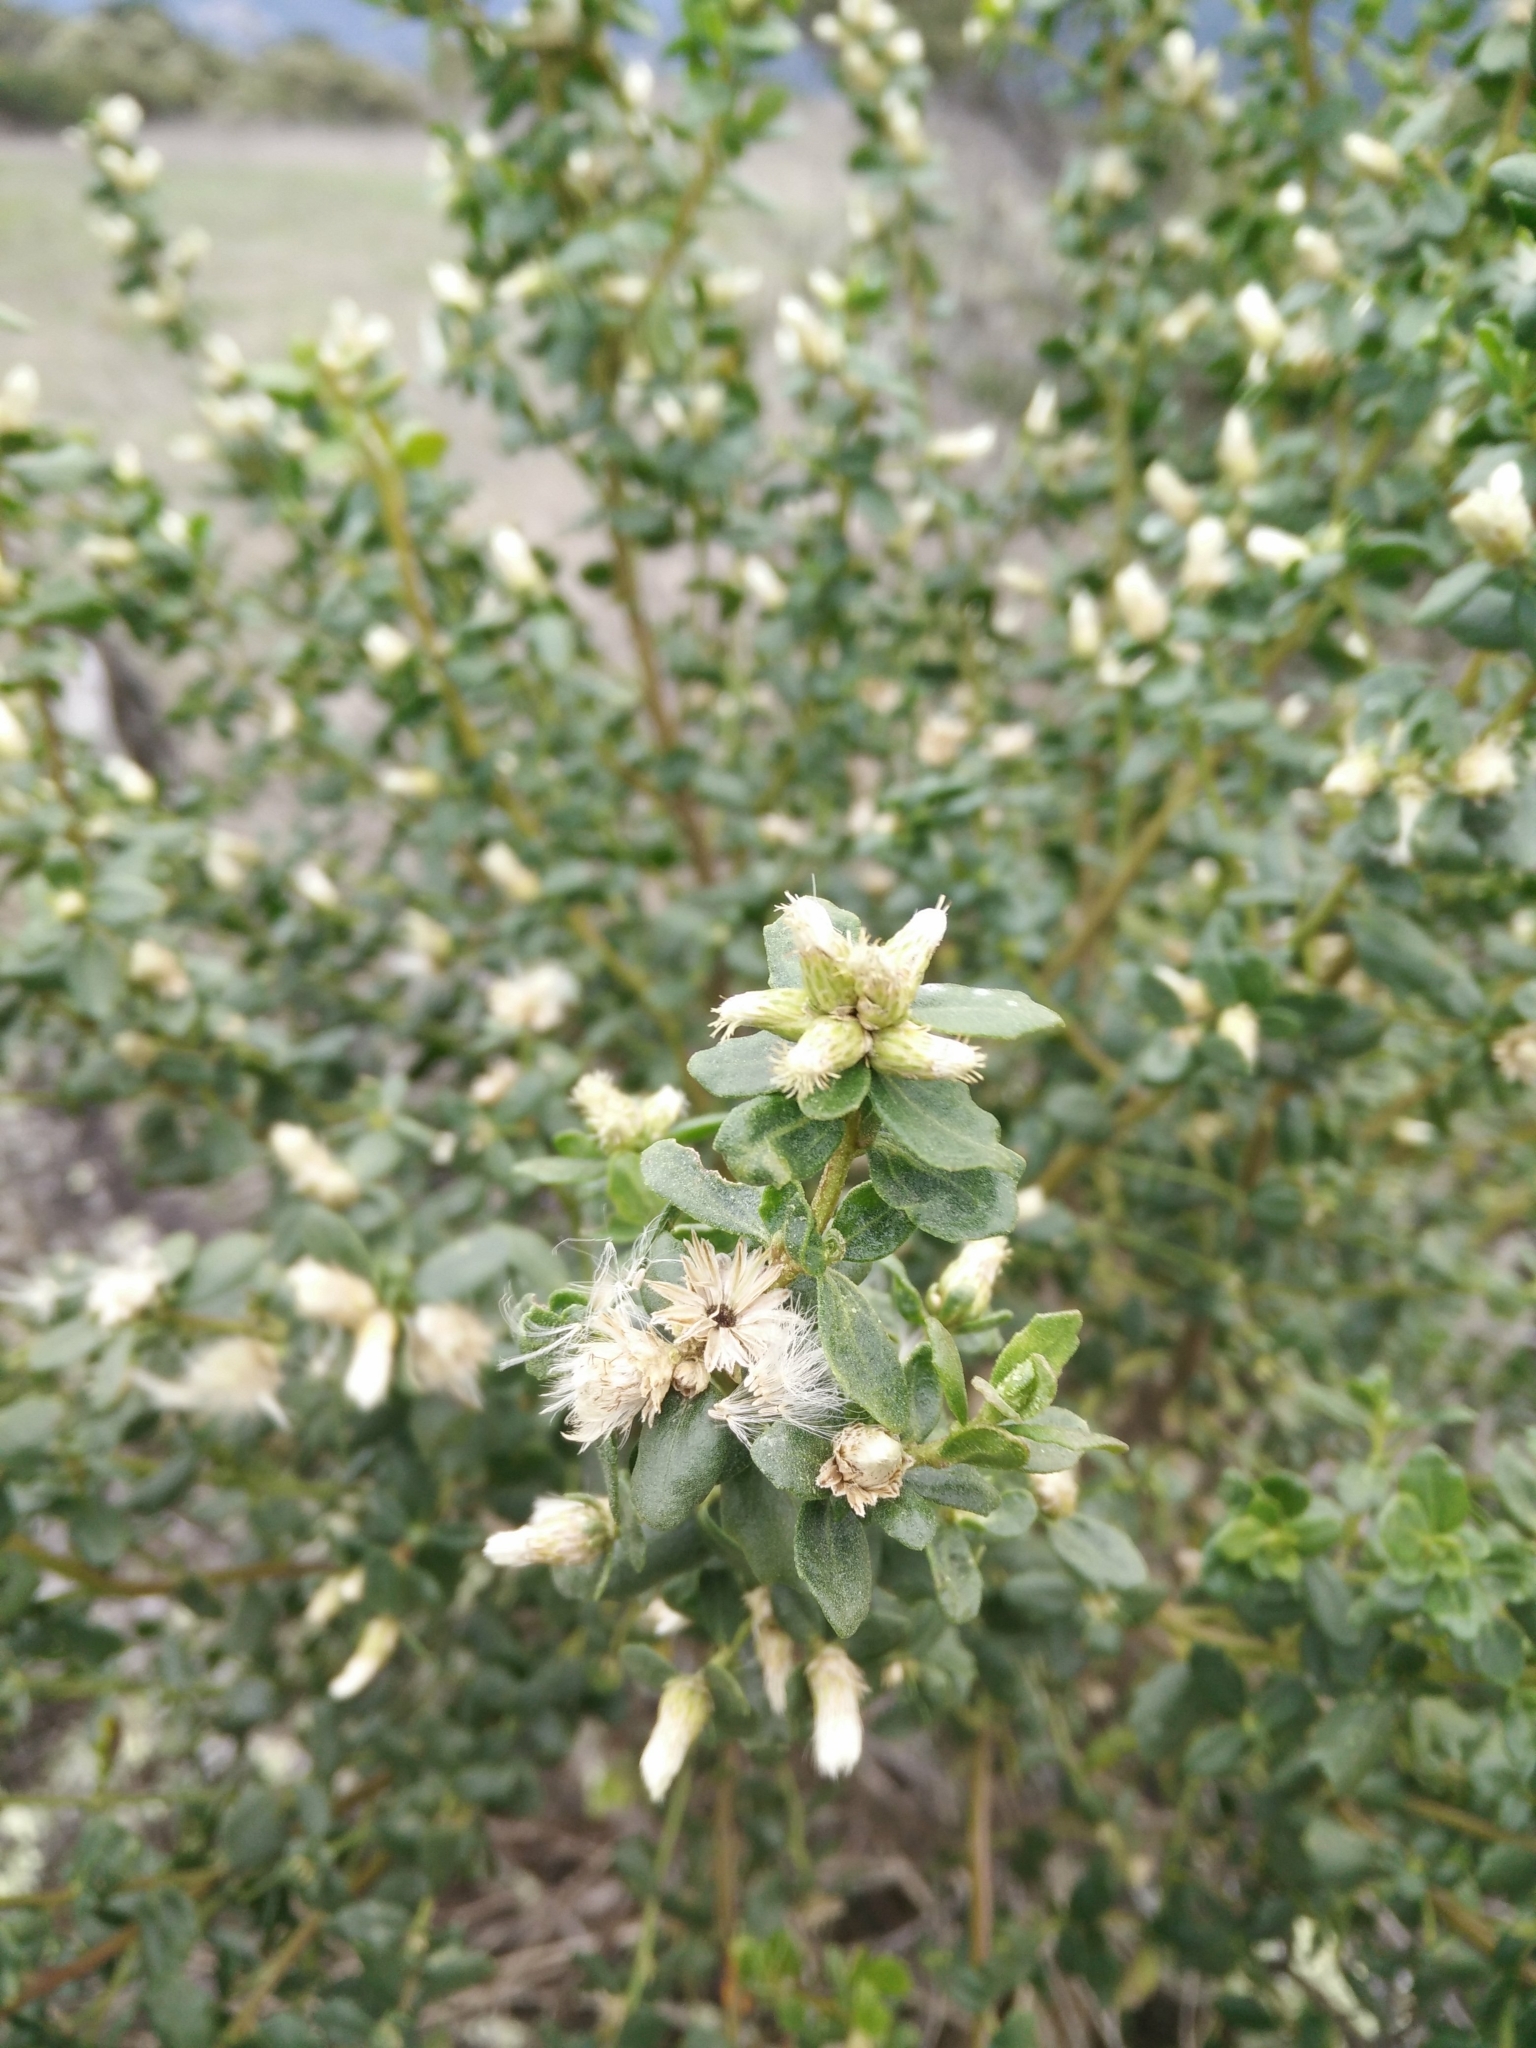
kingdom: Plantae
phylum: Tracheophyta
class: Magnoliopsida
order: Asterales
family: Asteraceae
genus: Baccharis
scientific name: Baccharis pilularis
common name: Coyotebrush
